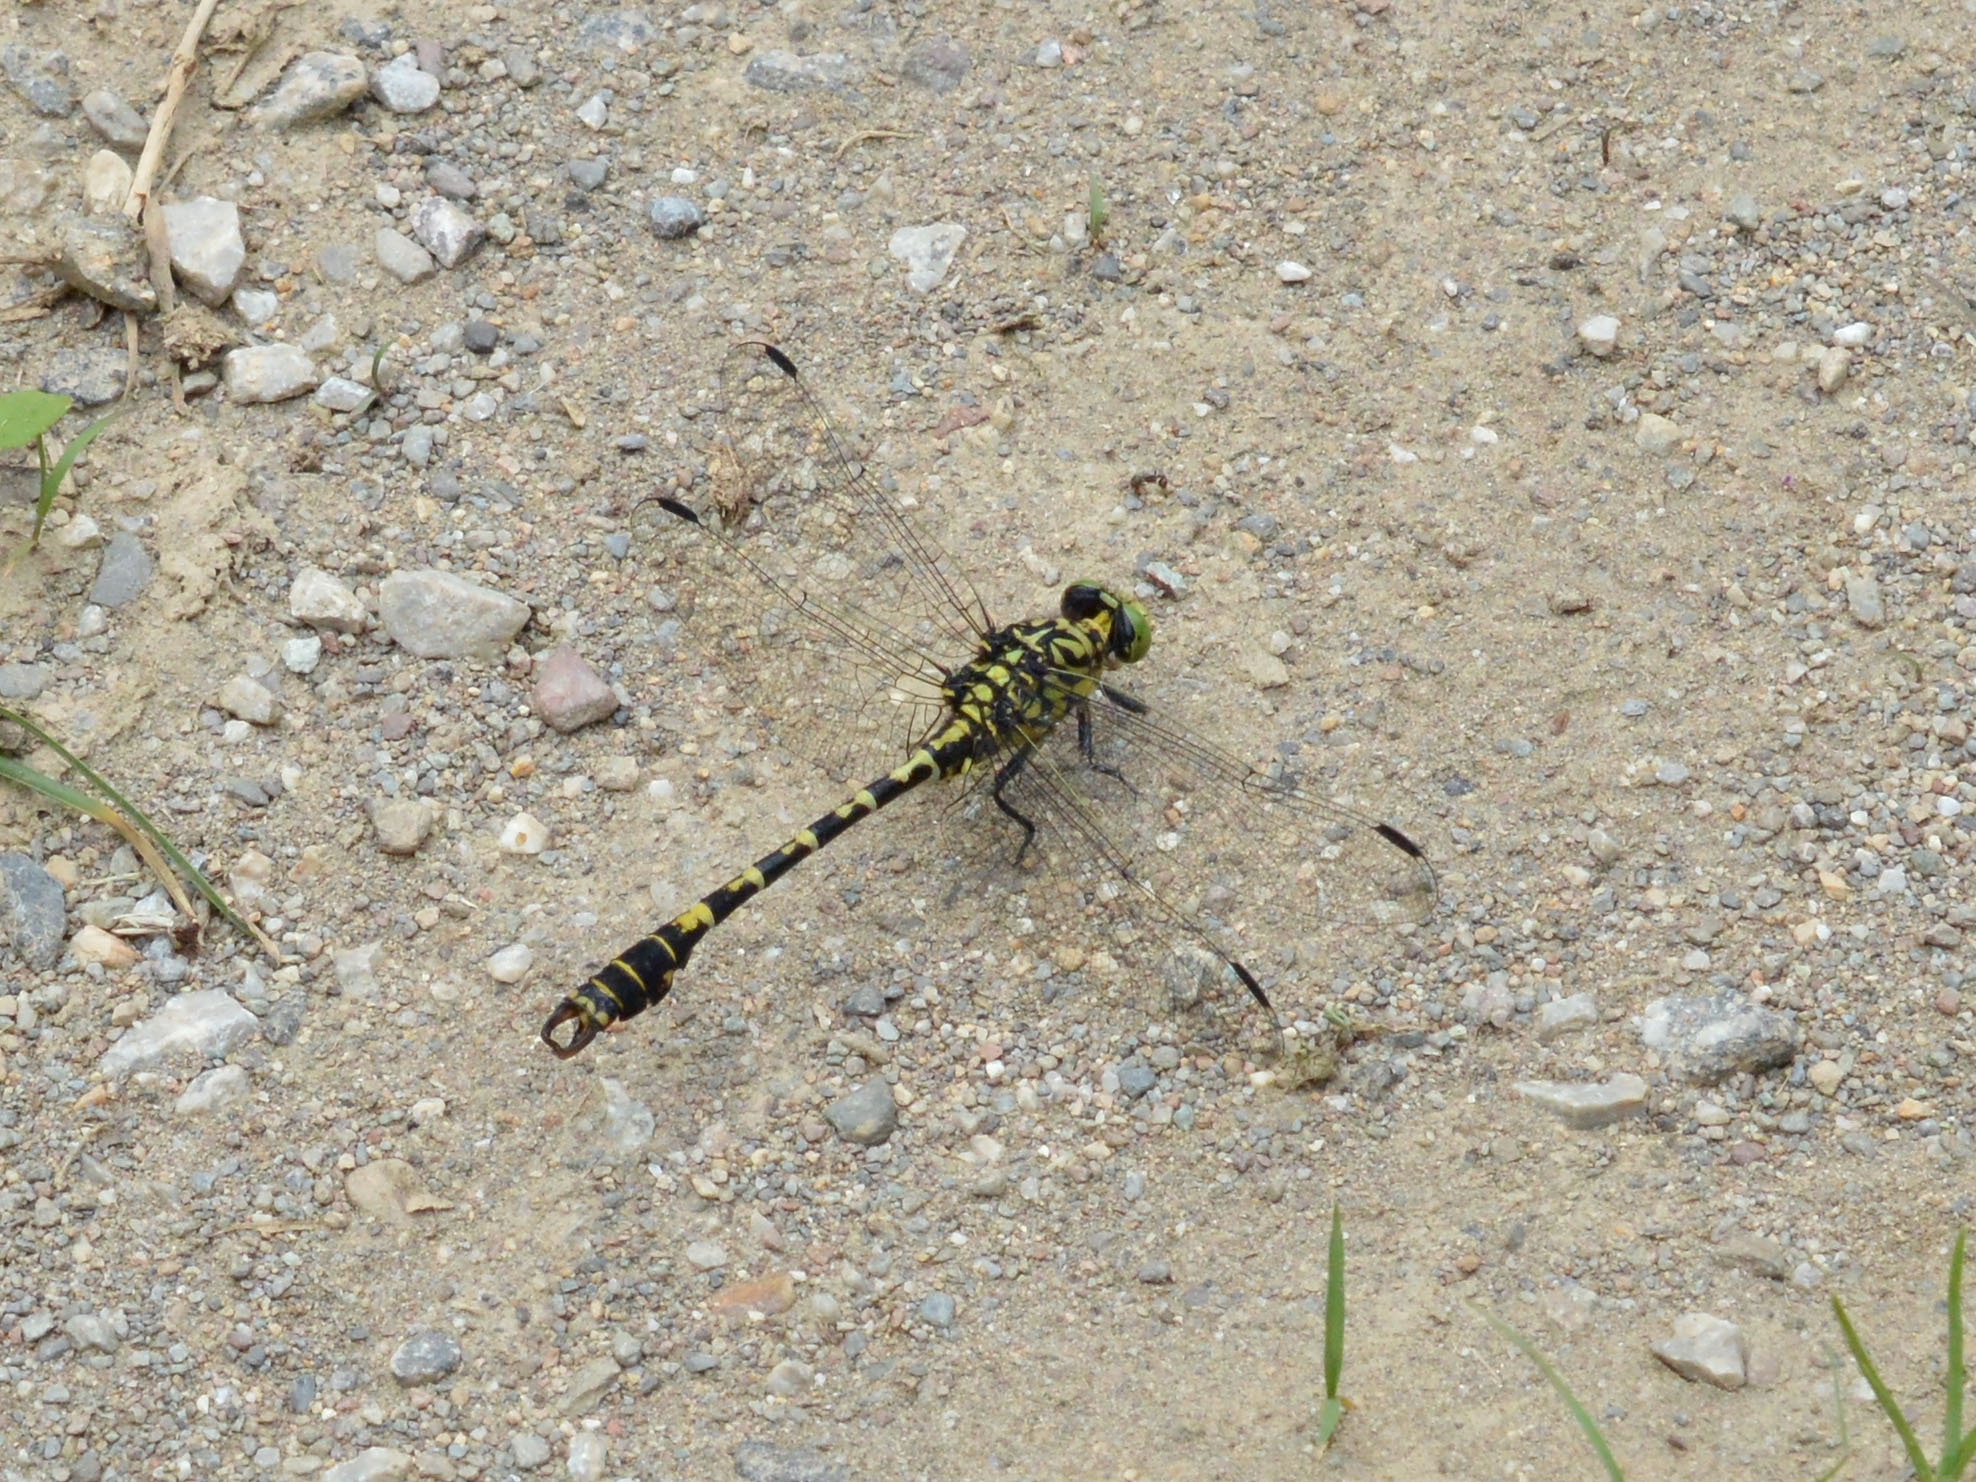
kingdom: Animalia
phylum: Arthropoda
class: Insecta
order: Odonata
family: Gomphidae
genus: Onychogomphus
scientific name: Onychogomphus forcipatus
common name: Small pincertail
